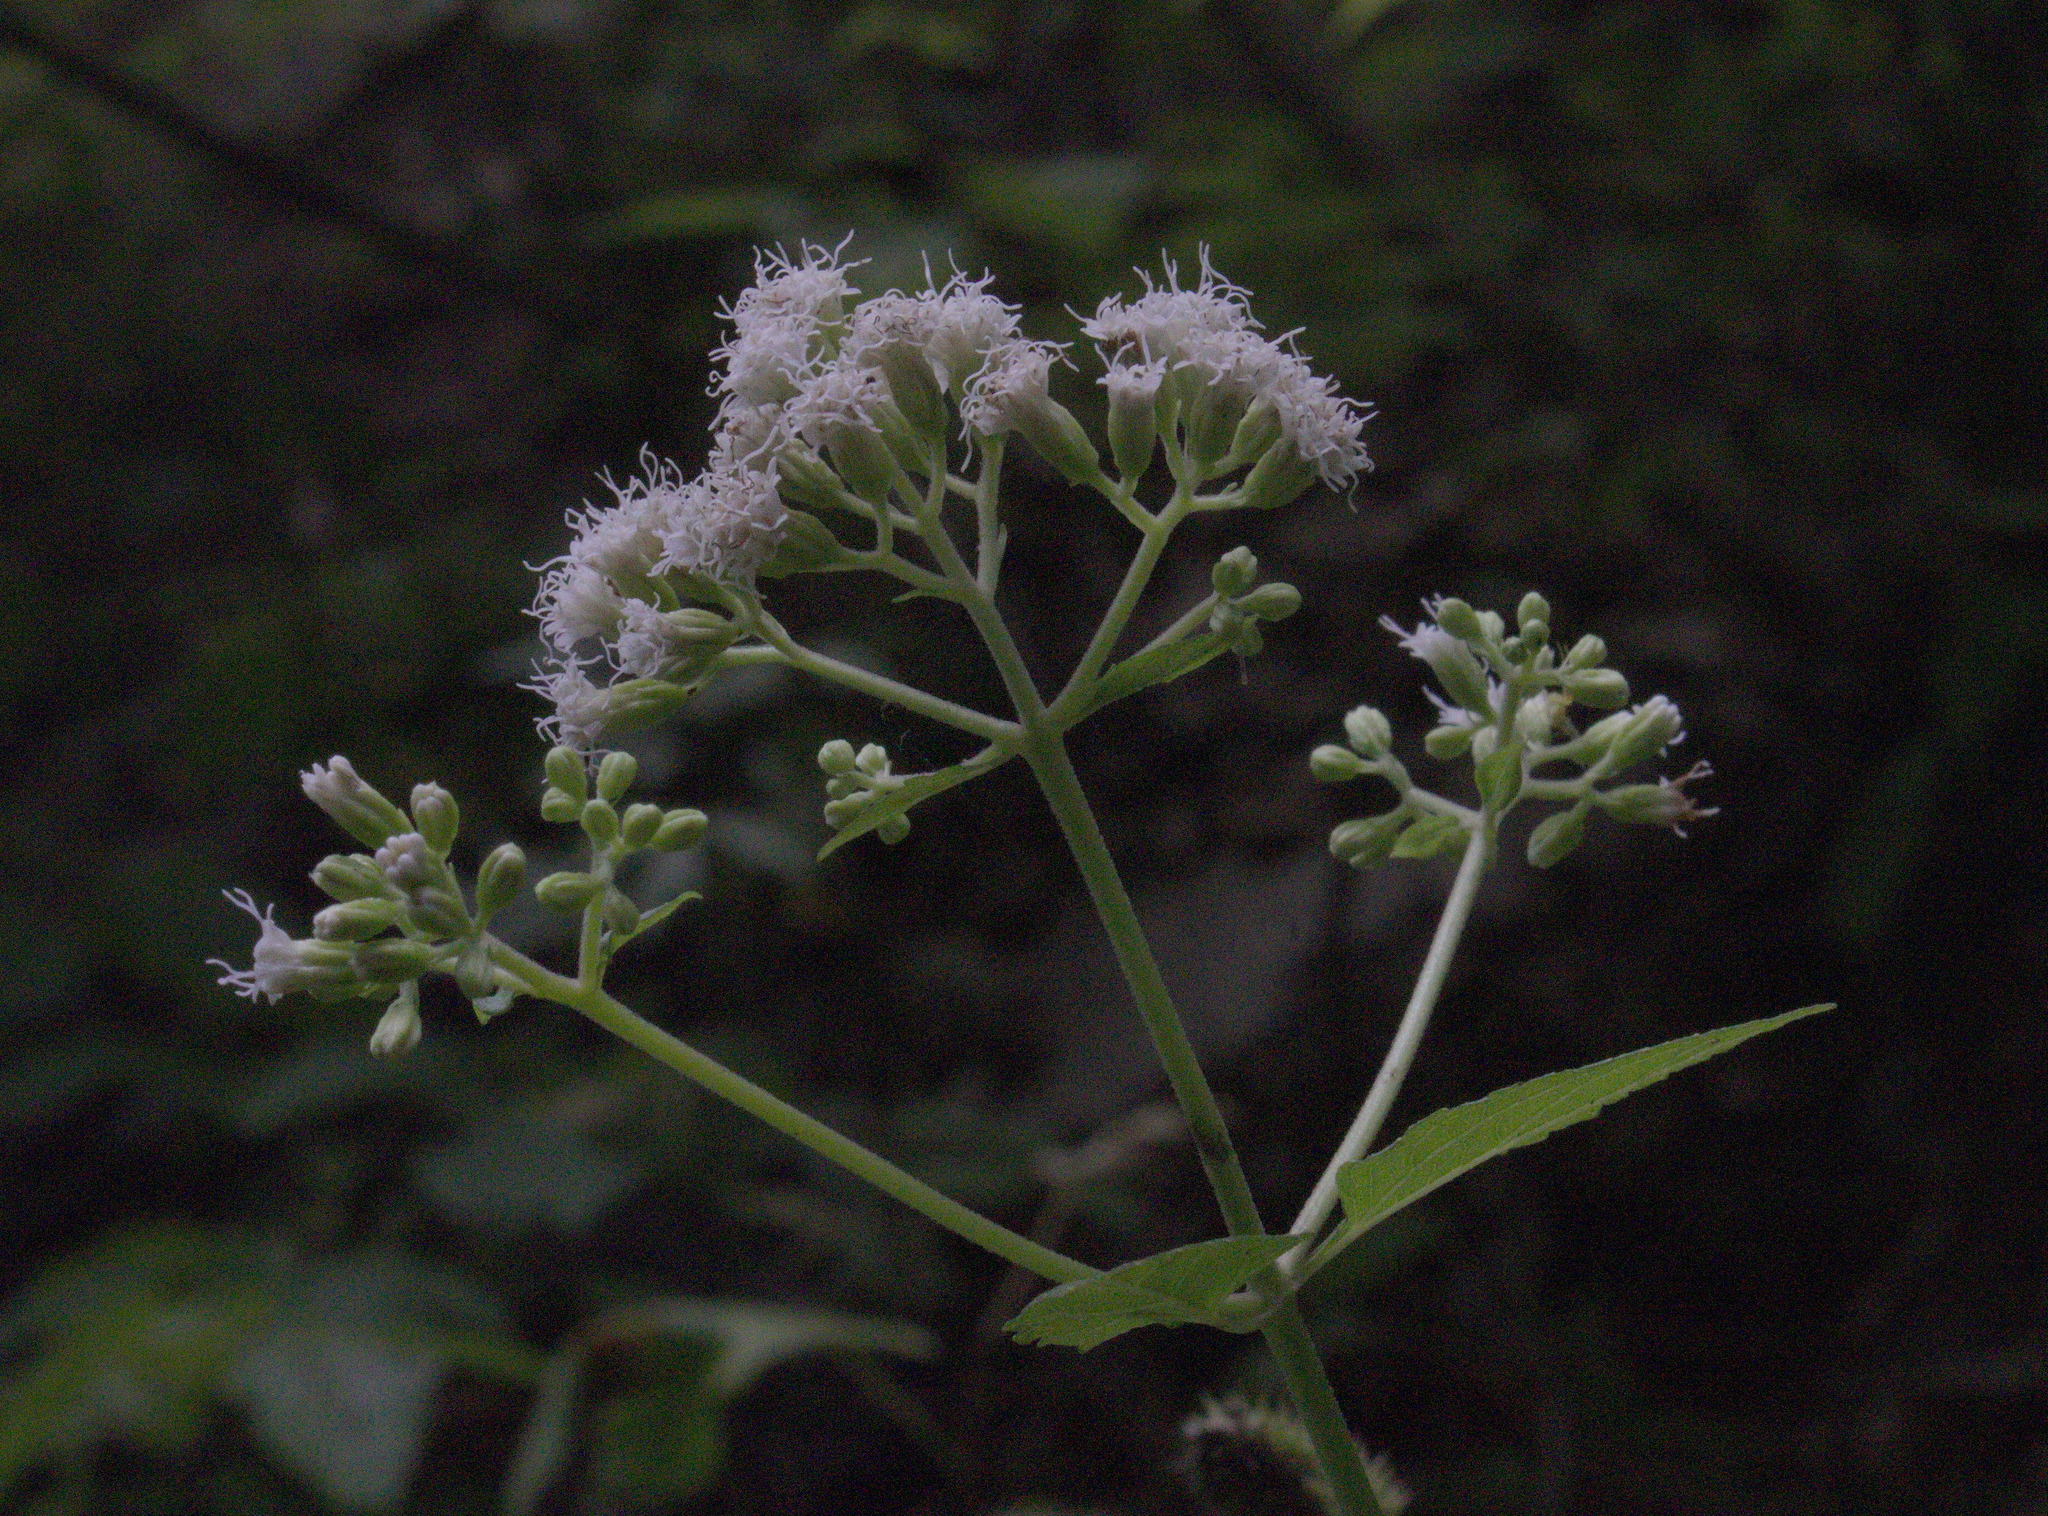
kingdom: Plantae
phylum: Tracheophyta
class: Magnoliopsida
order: Asterales
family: Asteraceae
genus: Ageratina
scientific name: Ageratina altissima
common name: White snakeroot
